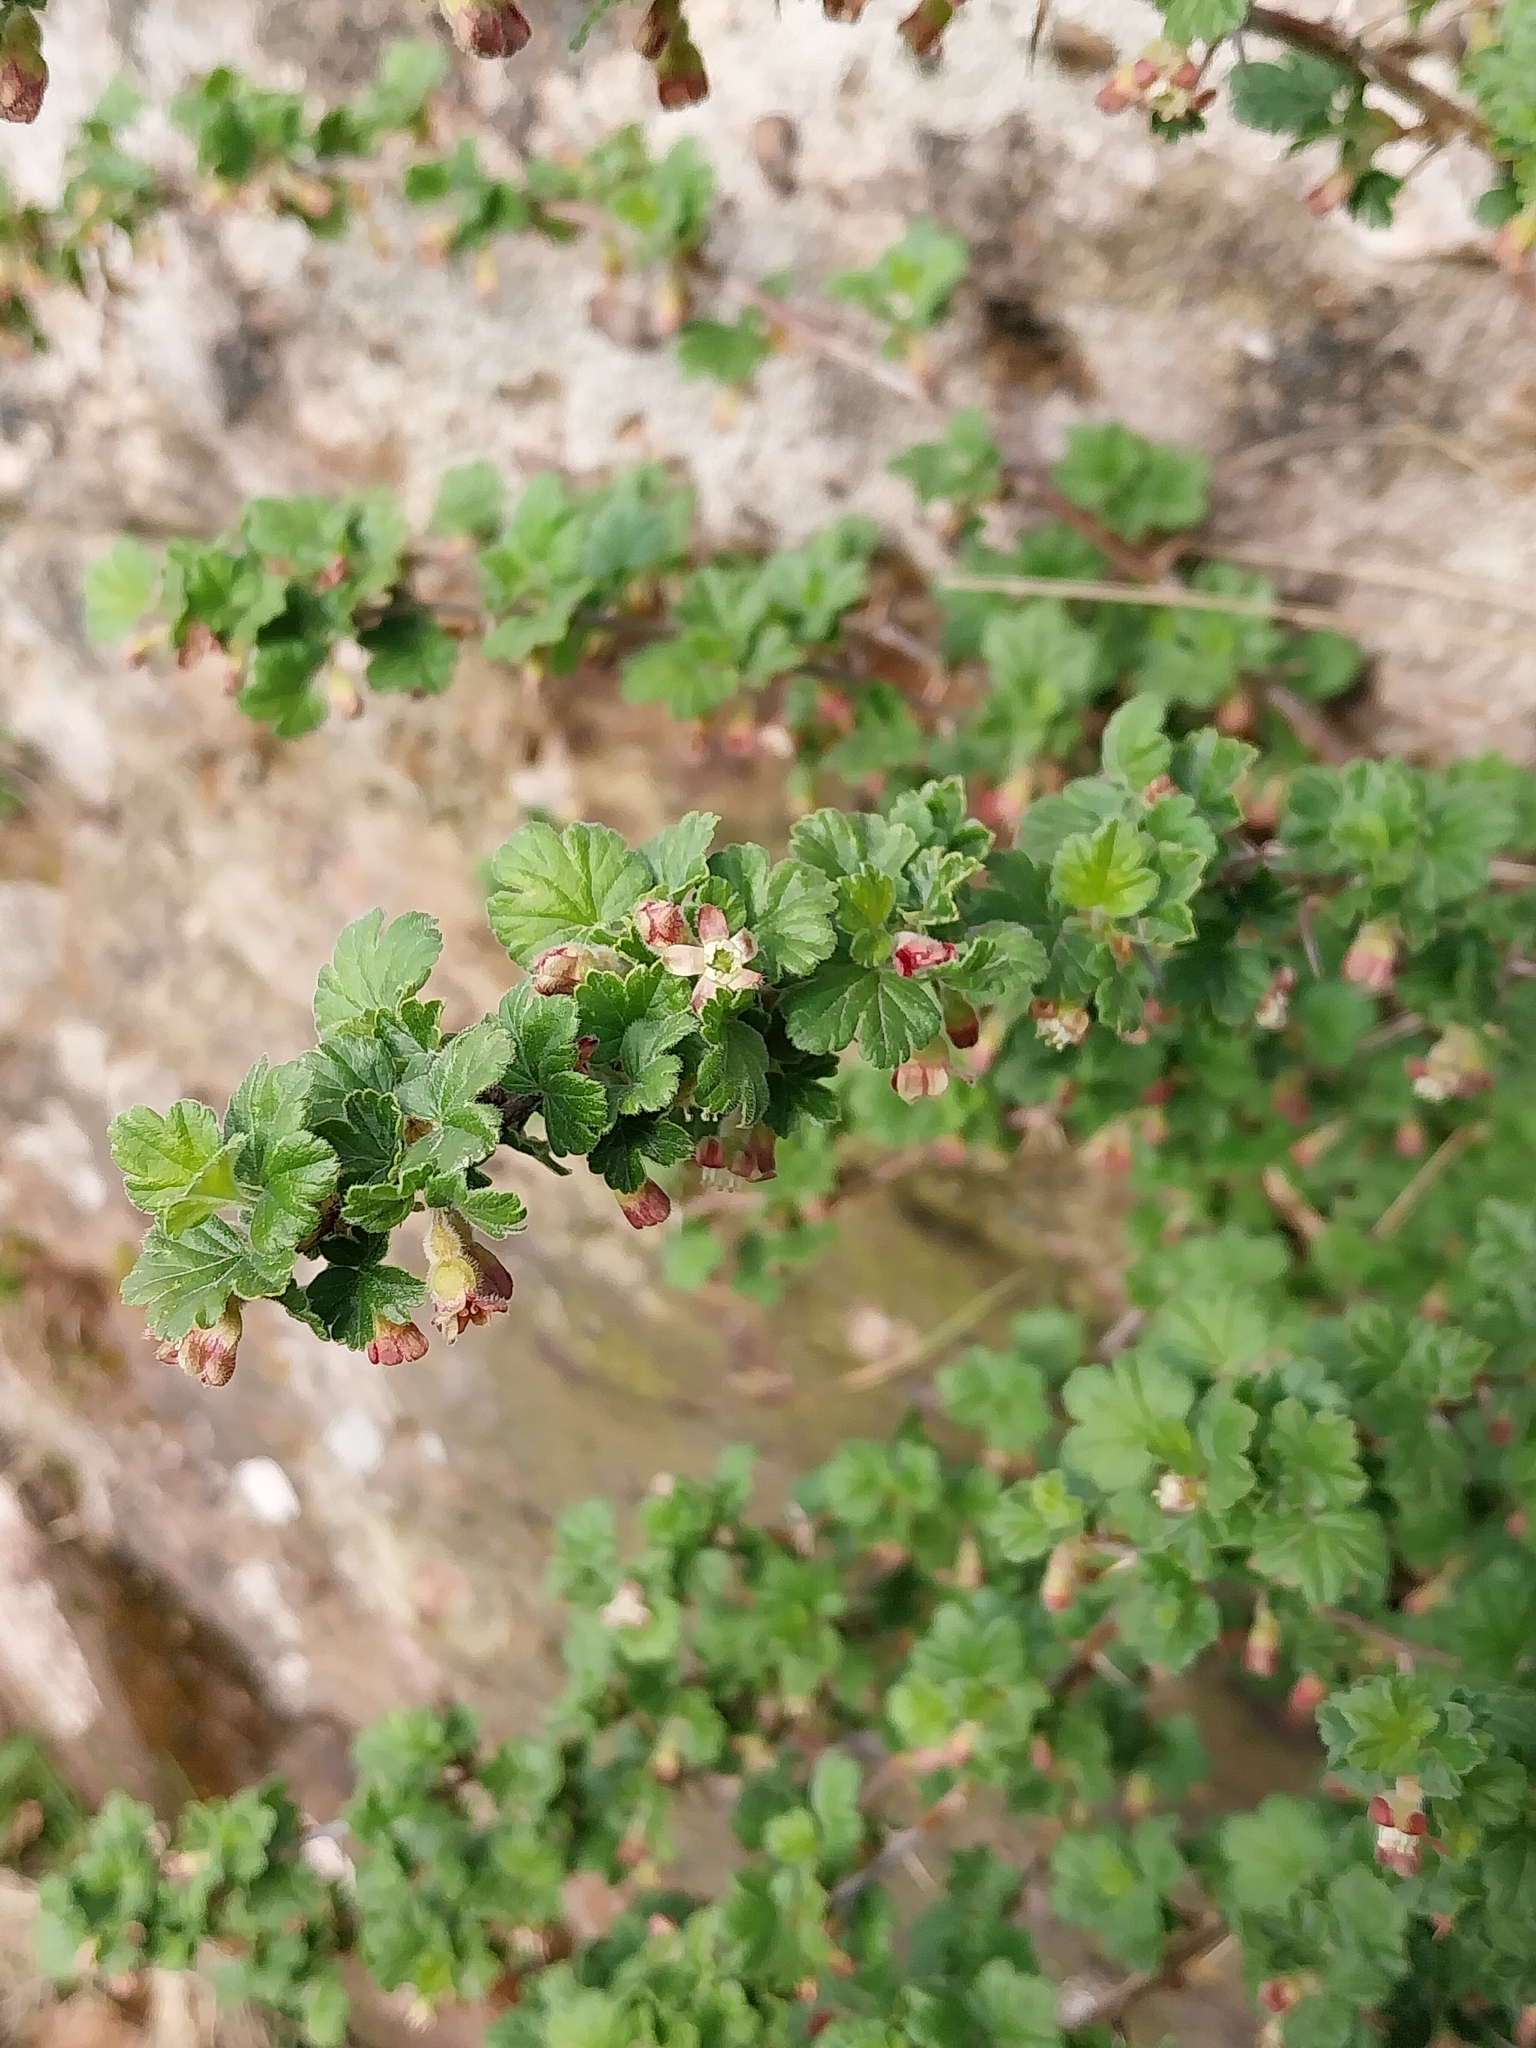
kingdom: Plantae
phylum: Tracheophyta
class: Magnoliopsida
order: Saxifragales
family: Grossulariaceae
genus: Ribes
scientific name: Ribes uva-crispa
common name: Gooseberry
